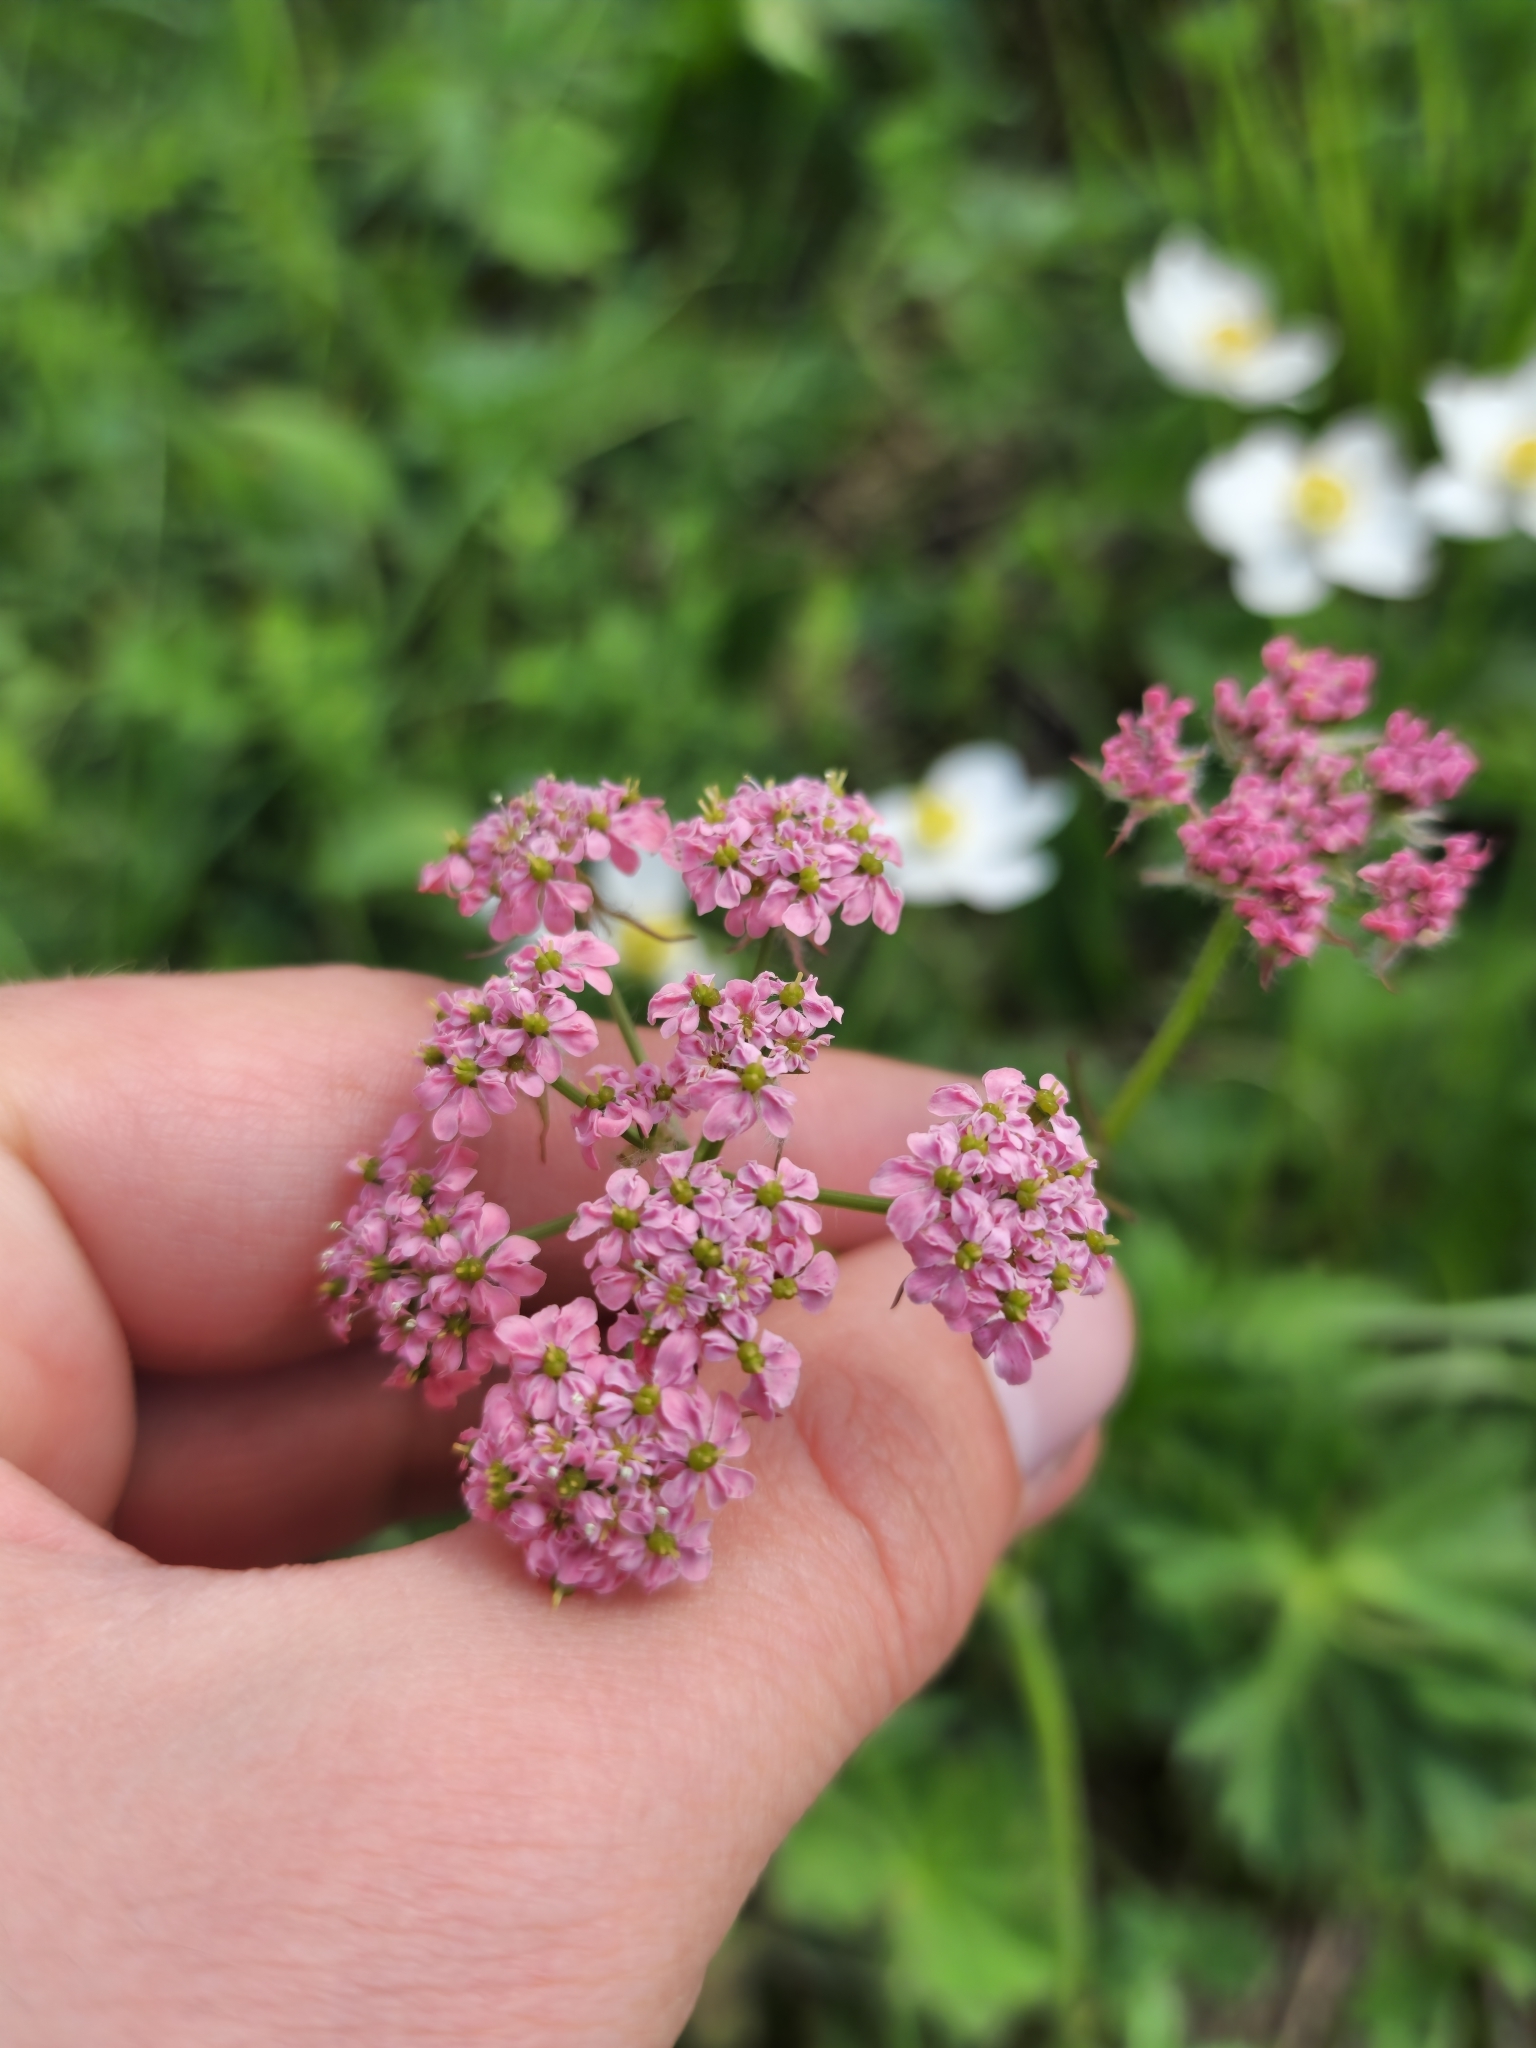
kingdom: Plantae
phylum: Tracheophyta
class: Magnoliopsida
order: Apiales
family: Apiaceae
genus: Chaerophyllum
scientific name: Chaerophyllum roseum
